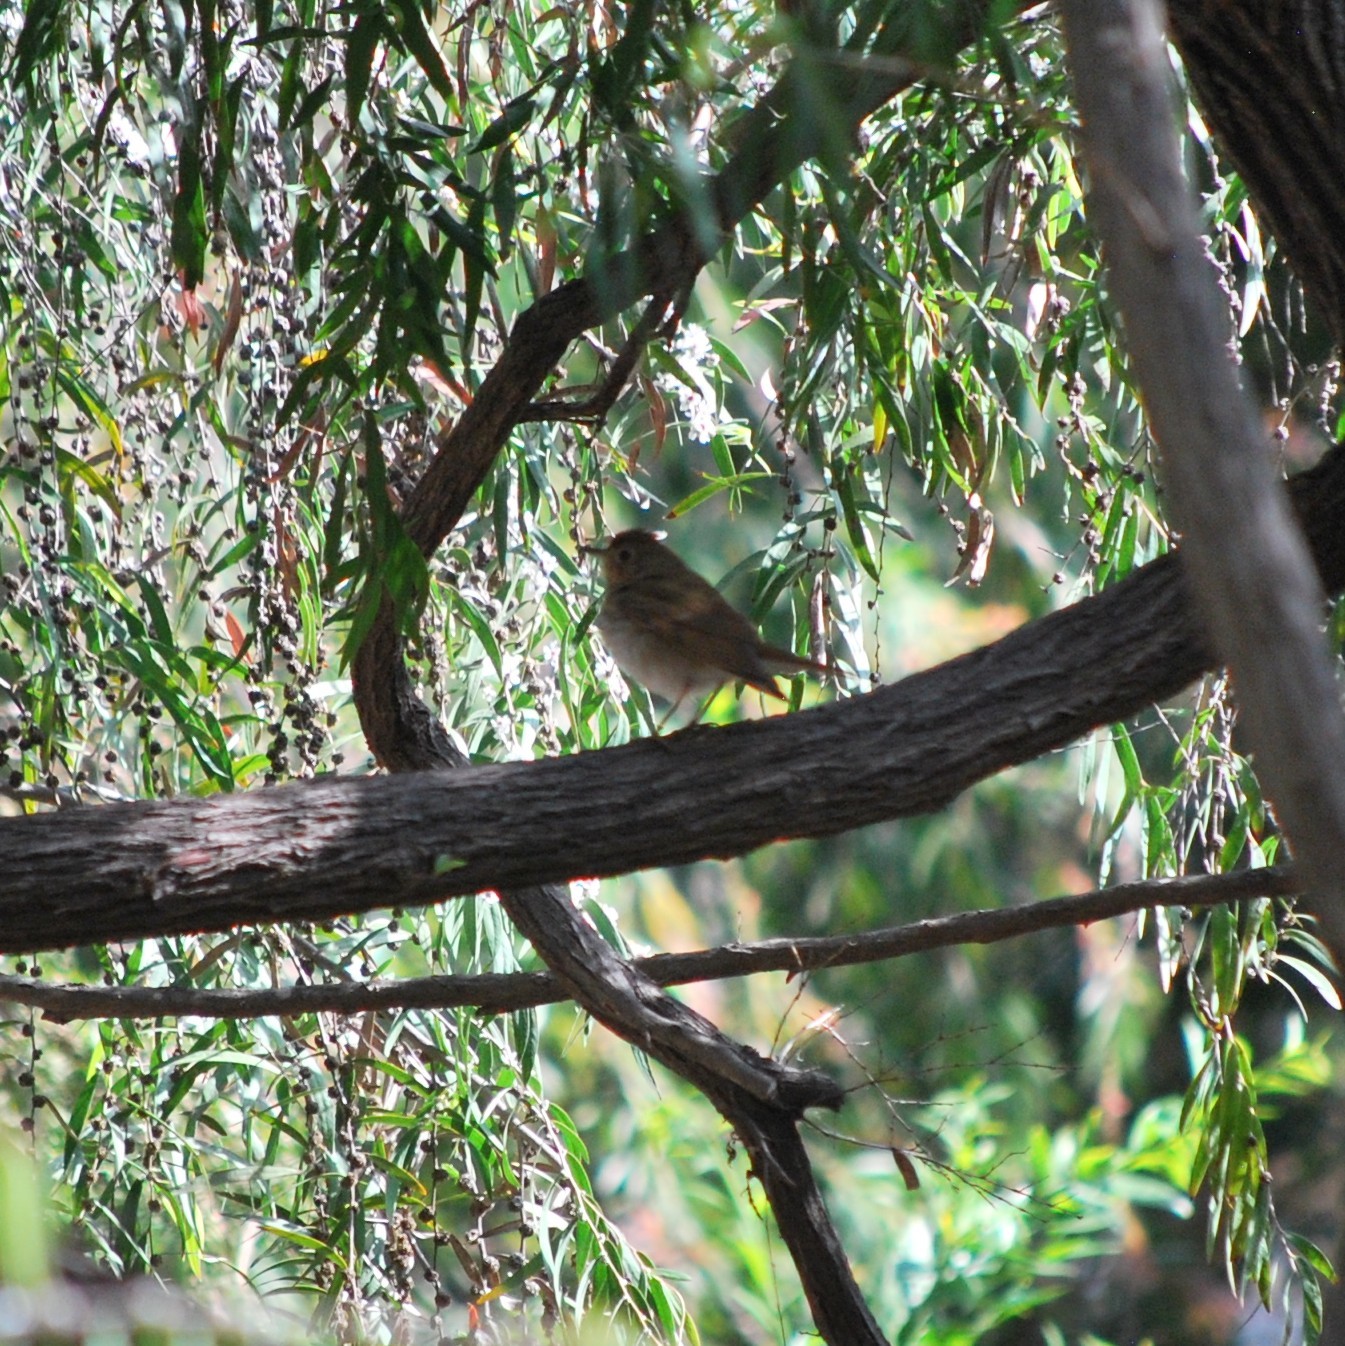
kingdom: Animalia
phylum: Chordata
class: Aves
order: Passeriformes
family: Turdidae
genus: Catharus
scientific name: Catharus ustulatus
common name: Swainson's thrush
